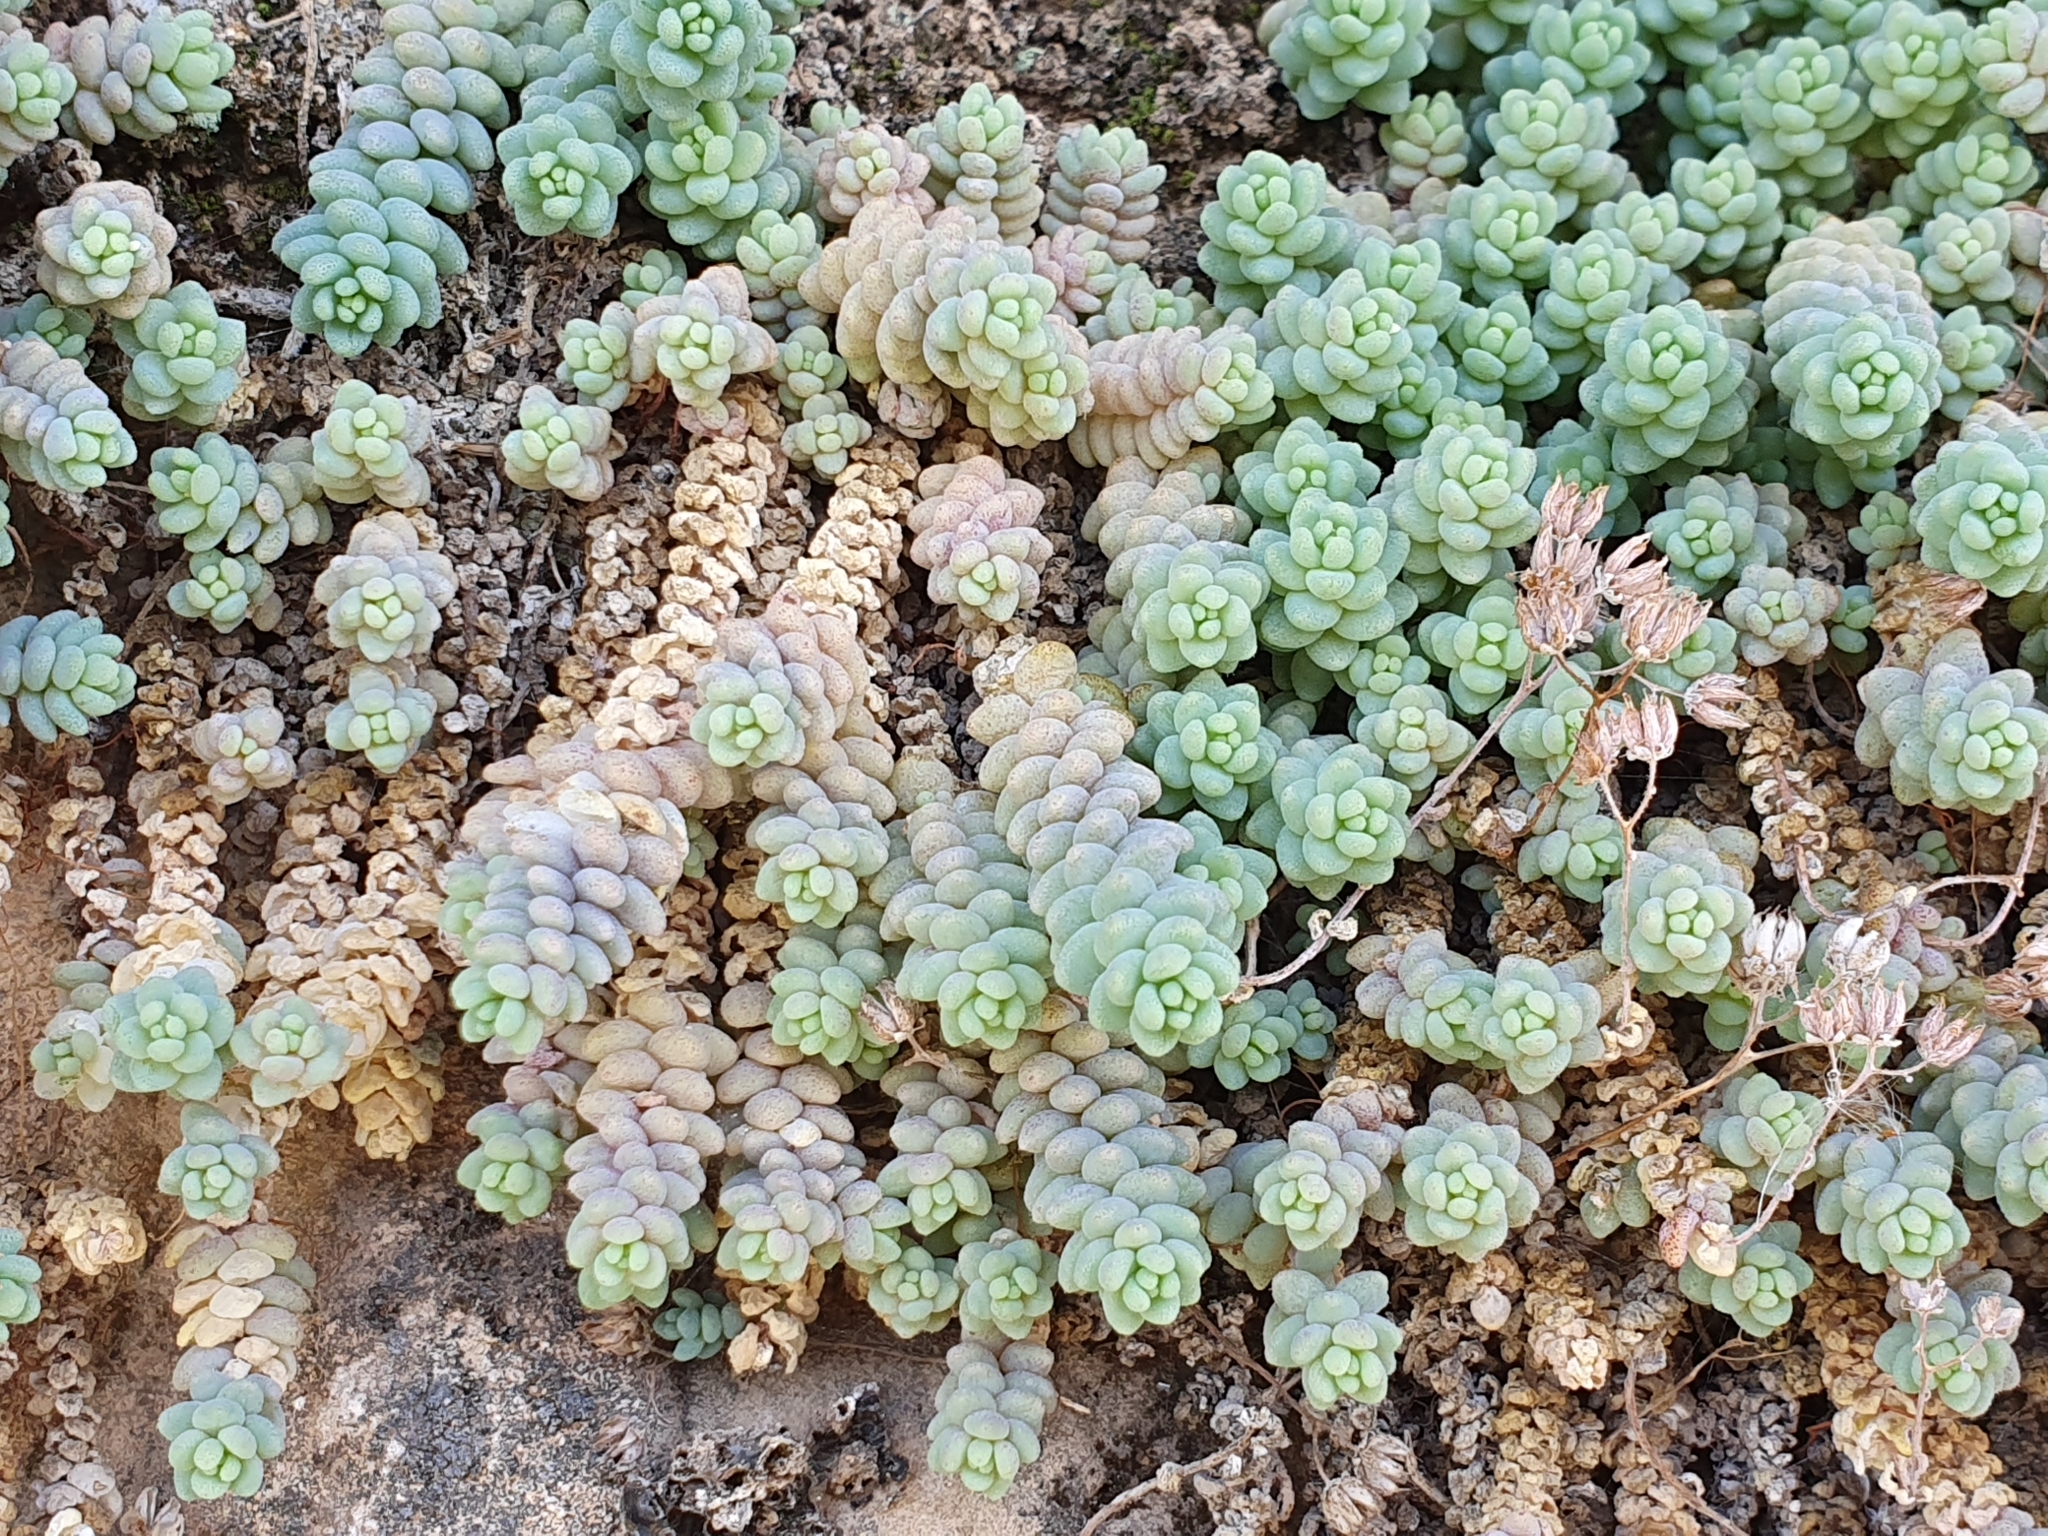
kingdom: Plantae
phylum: Tracheophyta
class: Magnoliopsida
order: Saxifragales
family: Crassulaceae
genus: Sedum
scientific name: Sedum dasyphyllum
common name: Thick-leaf stonecrop
